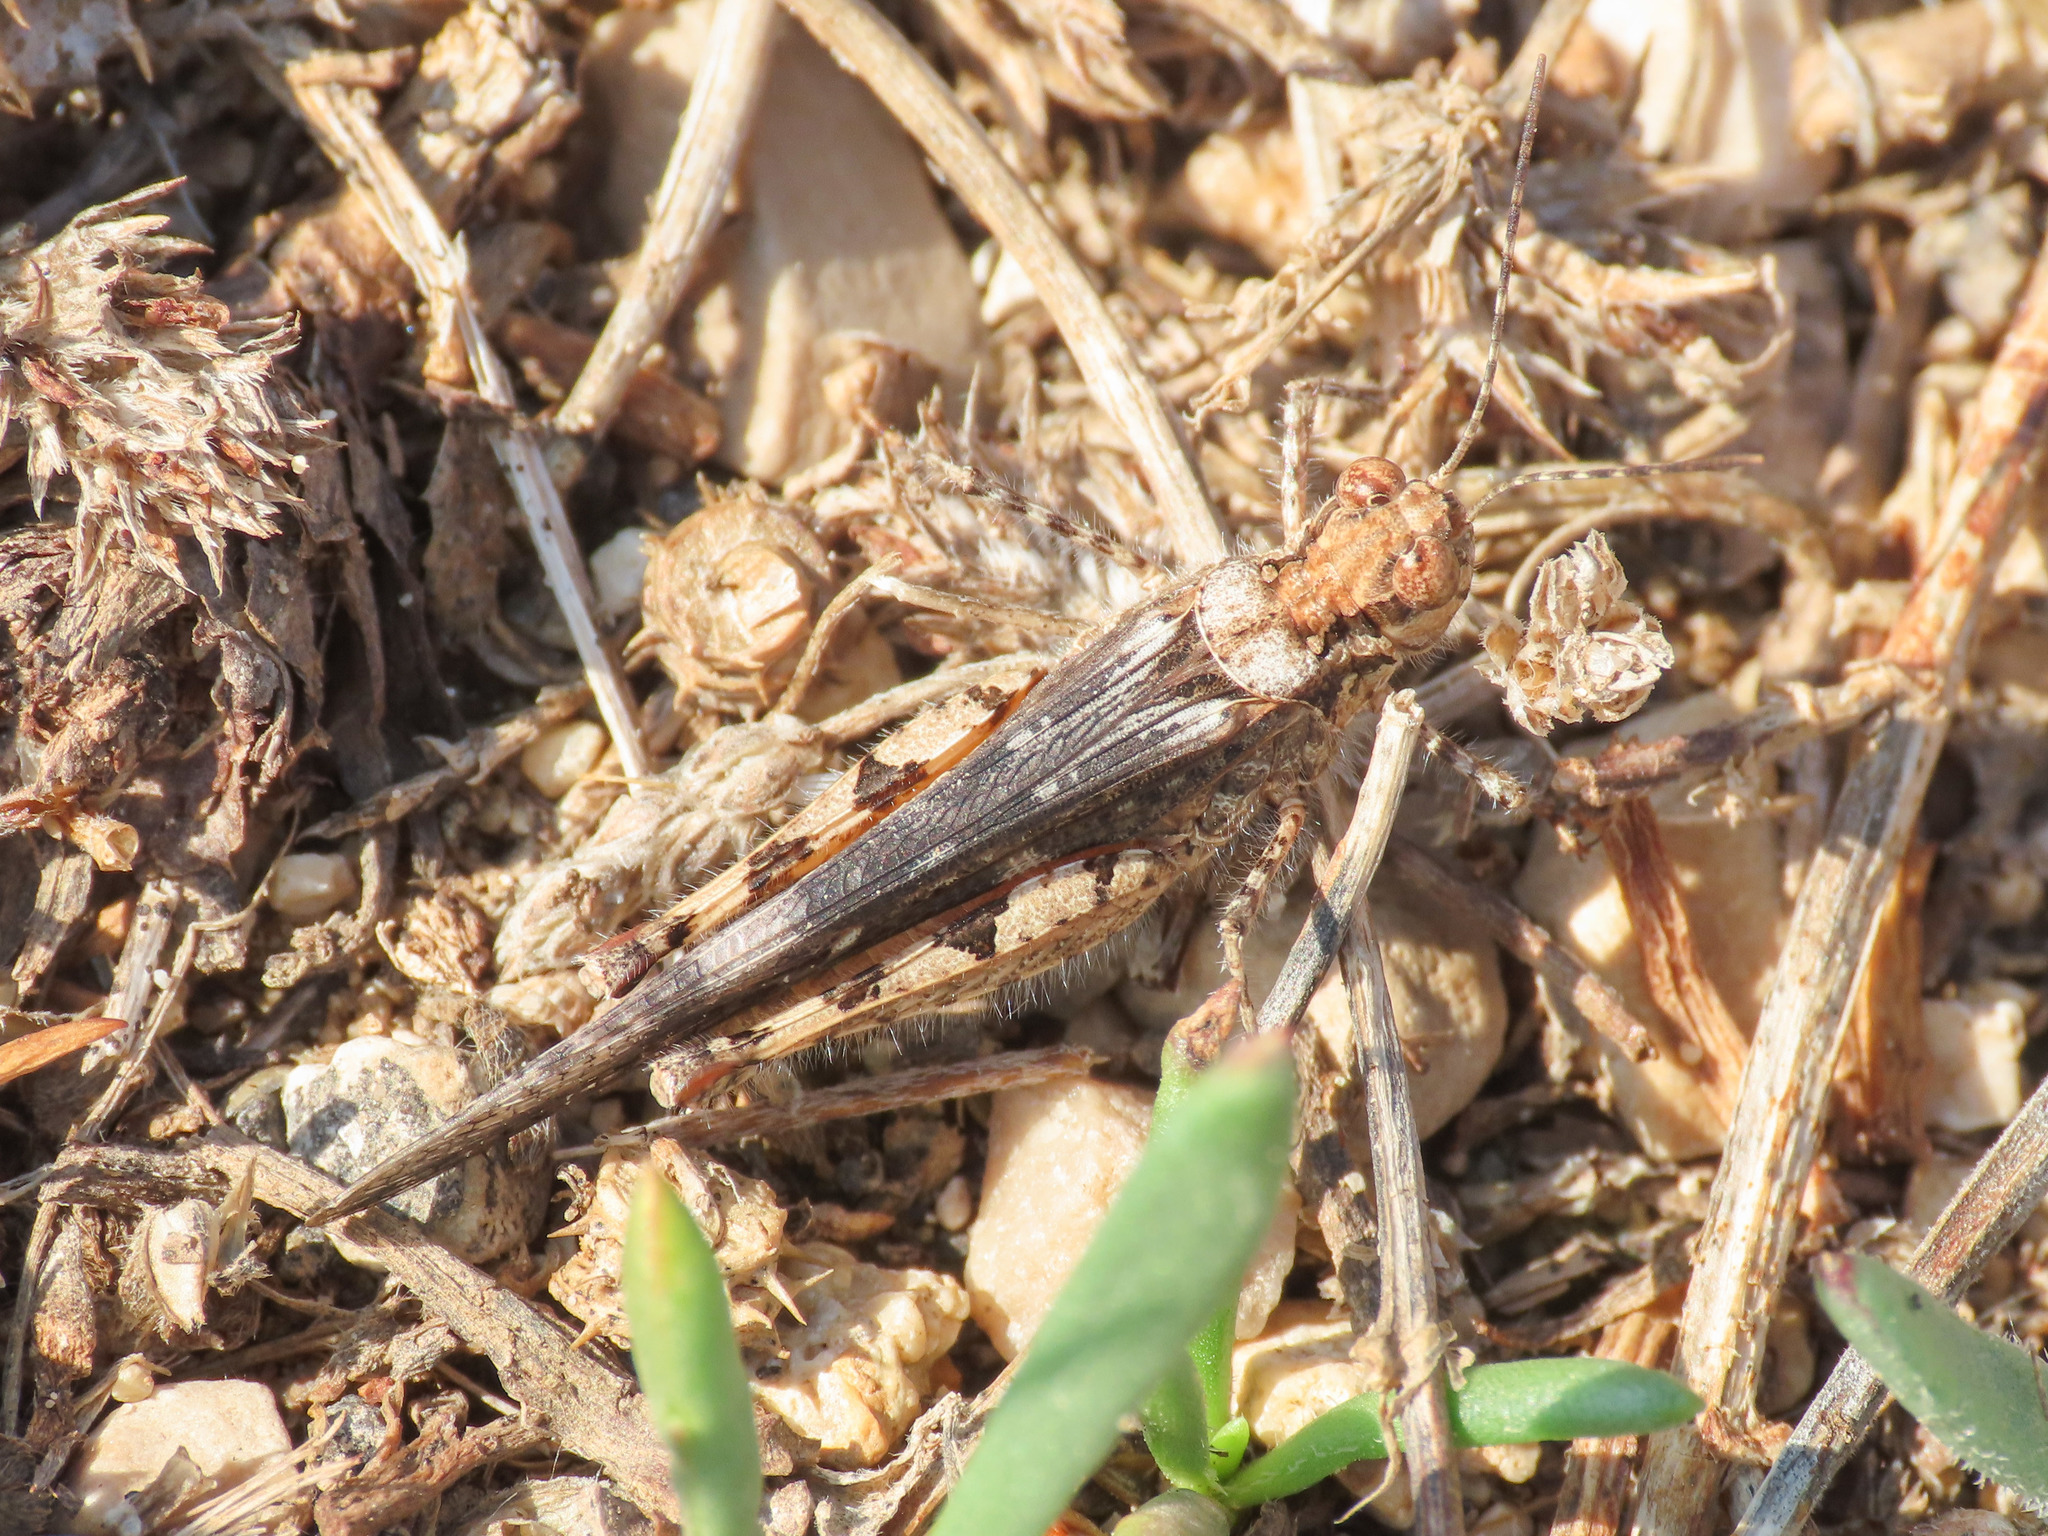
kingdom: Animalia
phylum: Arthropoda
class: Insecta
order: Orthoptera
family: Acrididae
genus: Acrotylus
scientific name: Acrotylus patruelis
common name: Slender burrowing grasshopper
